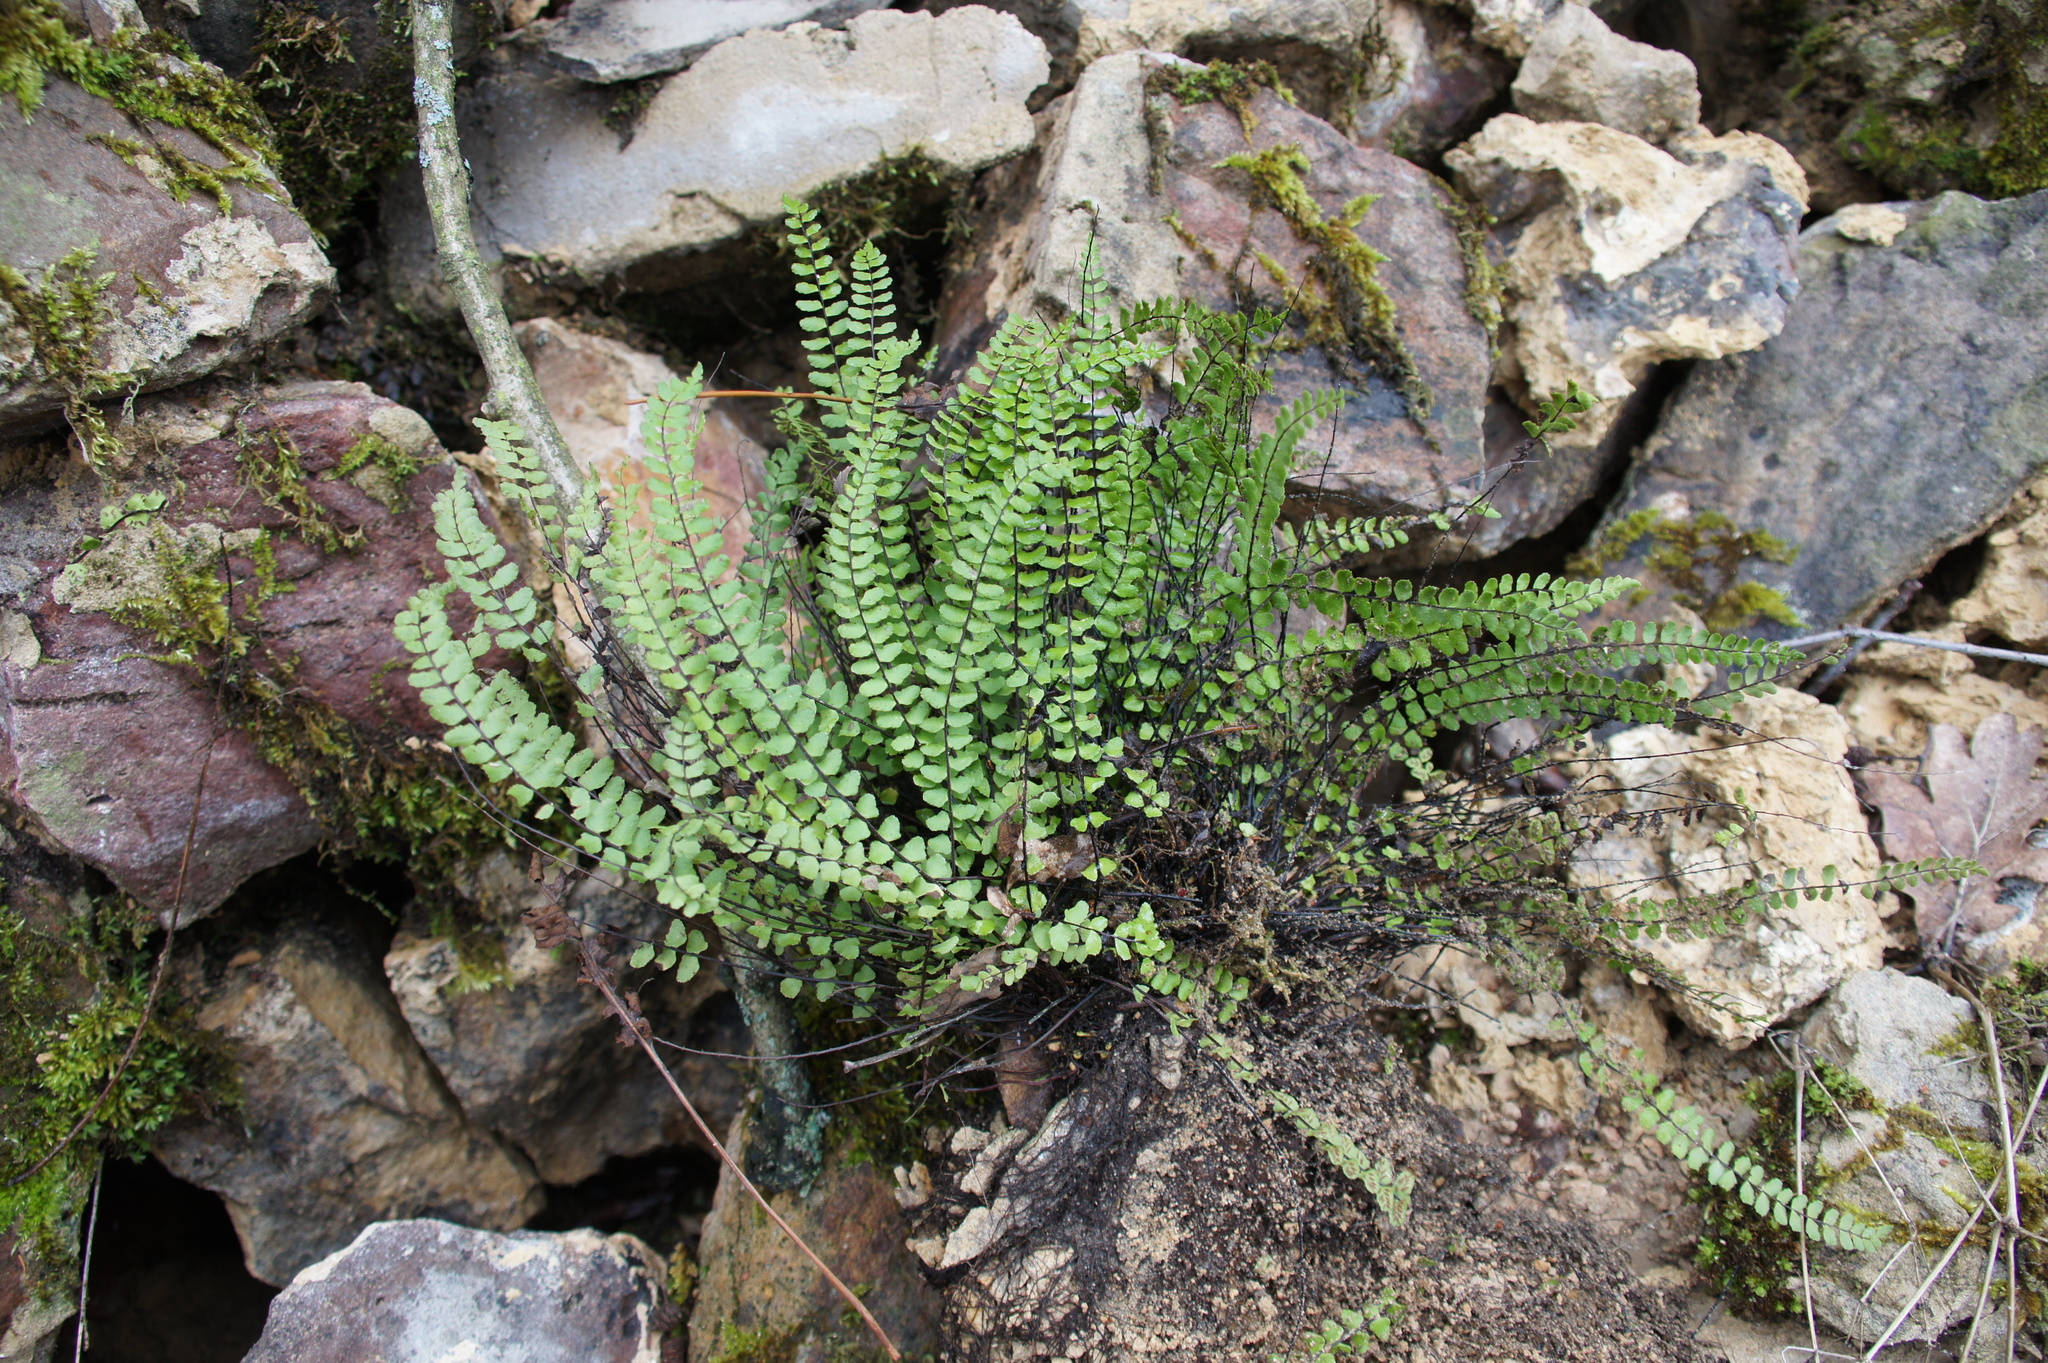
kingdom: Plantae
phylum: Tracheophyta
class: Polypodiopsida
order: Polypodiales
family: Aspleniaceae
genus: Asplenium
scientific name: Asplenium trichomanes
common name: Maidenhair spleenwort
